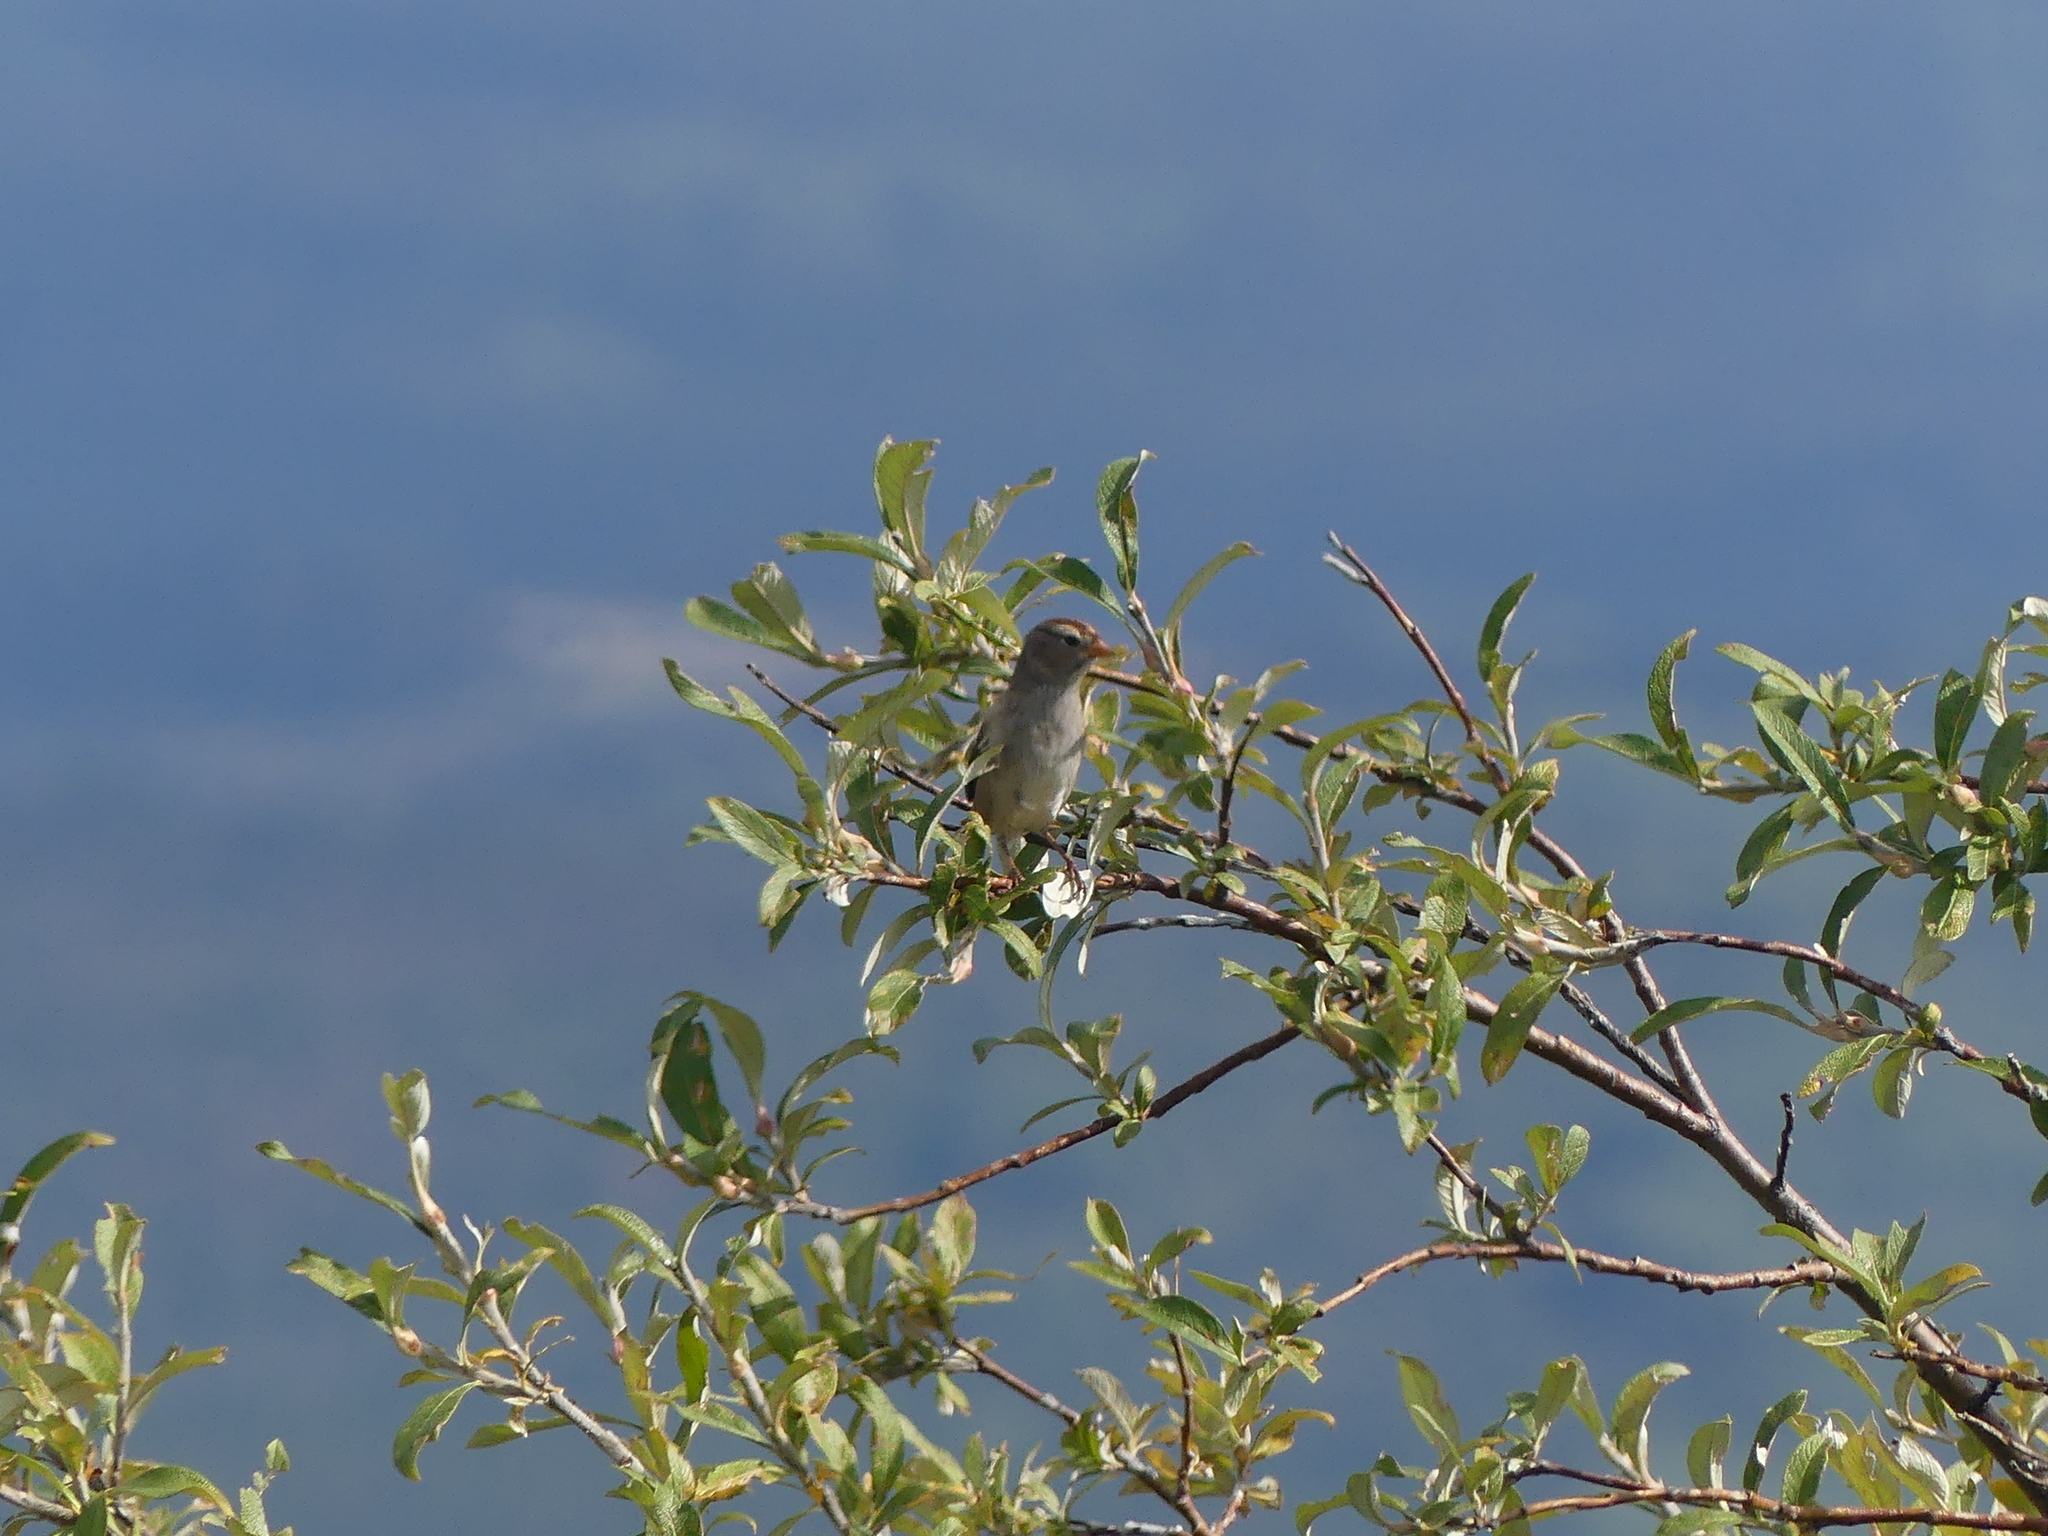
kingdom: Animalia
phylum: Chordata
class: Aves
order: Passeriformes
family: Passerellidae
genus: Zonotrichia
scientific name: Zonotrichia leucophrys
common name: White-crowned sparrow
